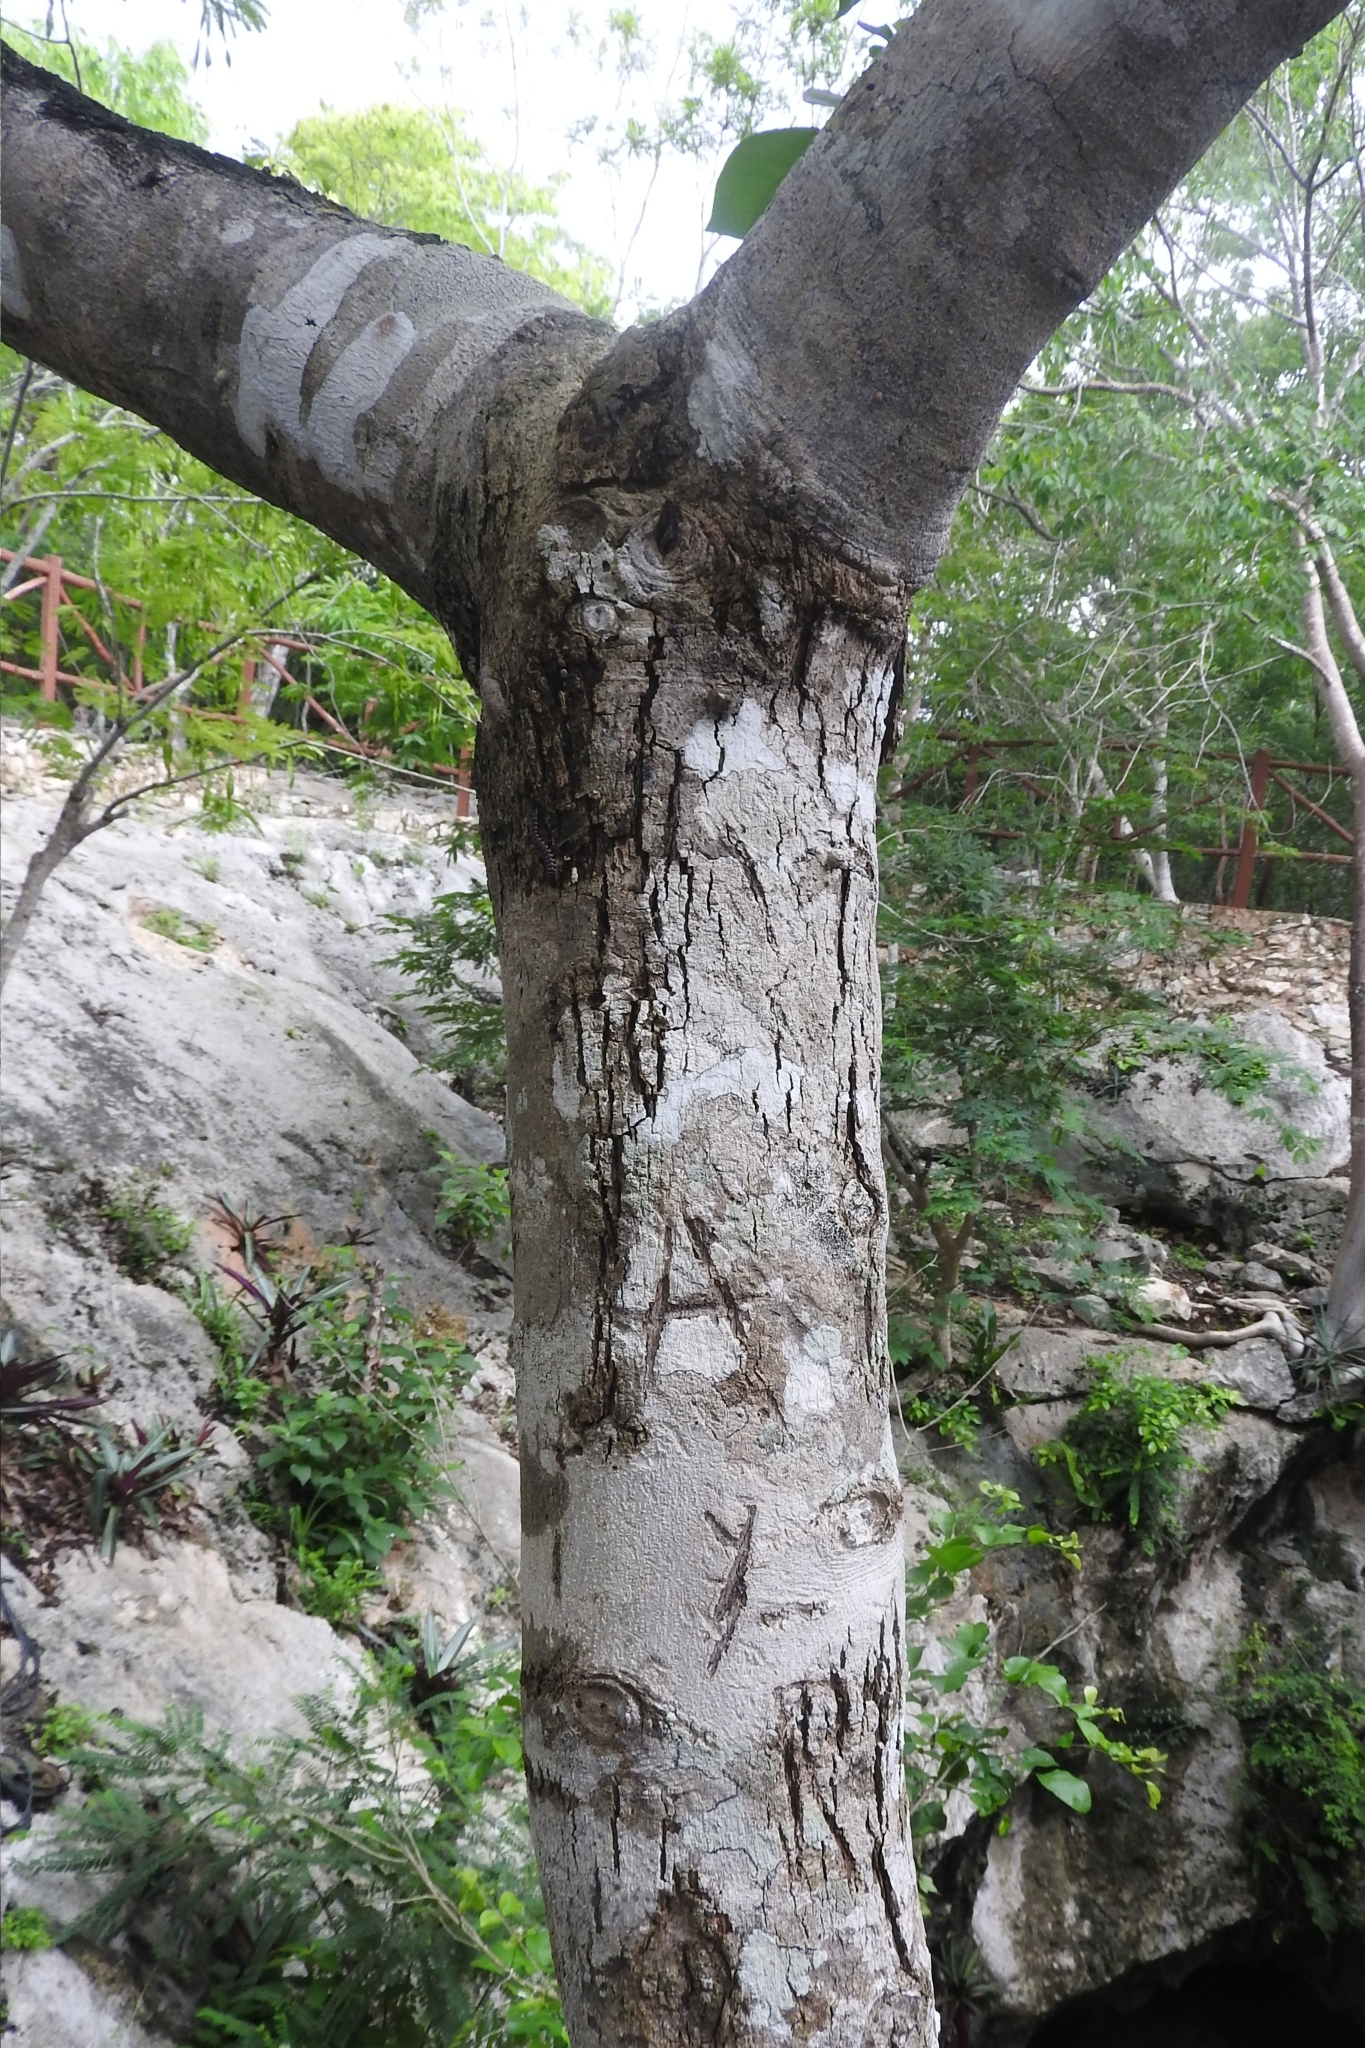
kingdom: Plantae
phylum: Tracheophyta
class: Magnoliopsida
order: Fabales
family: Fabaceae
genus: Lysiloma
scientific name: Lysiloma latisiliquum
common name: Wild tamarind
